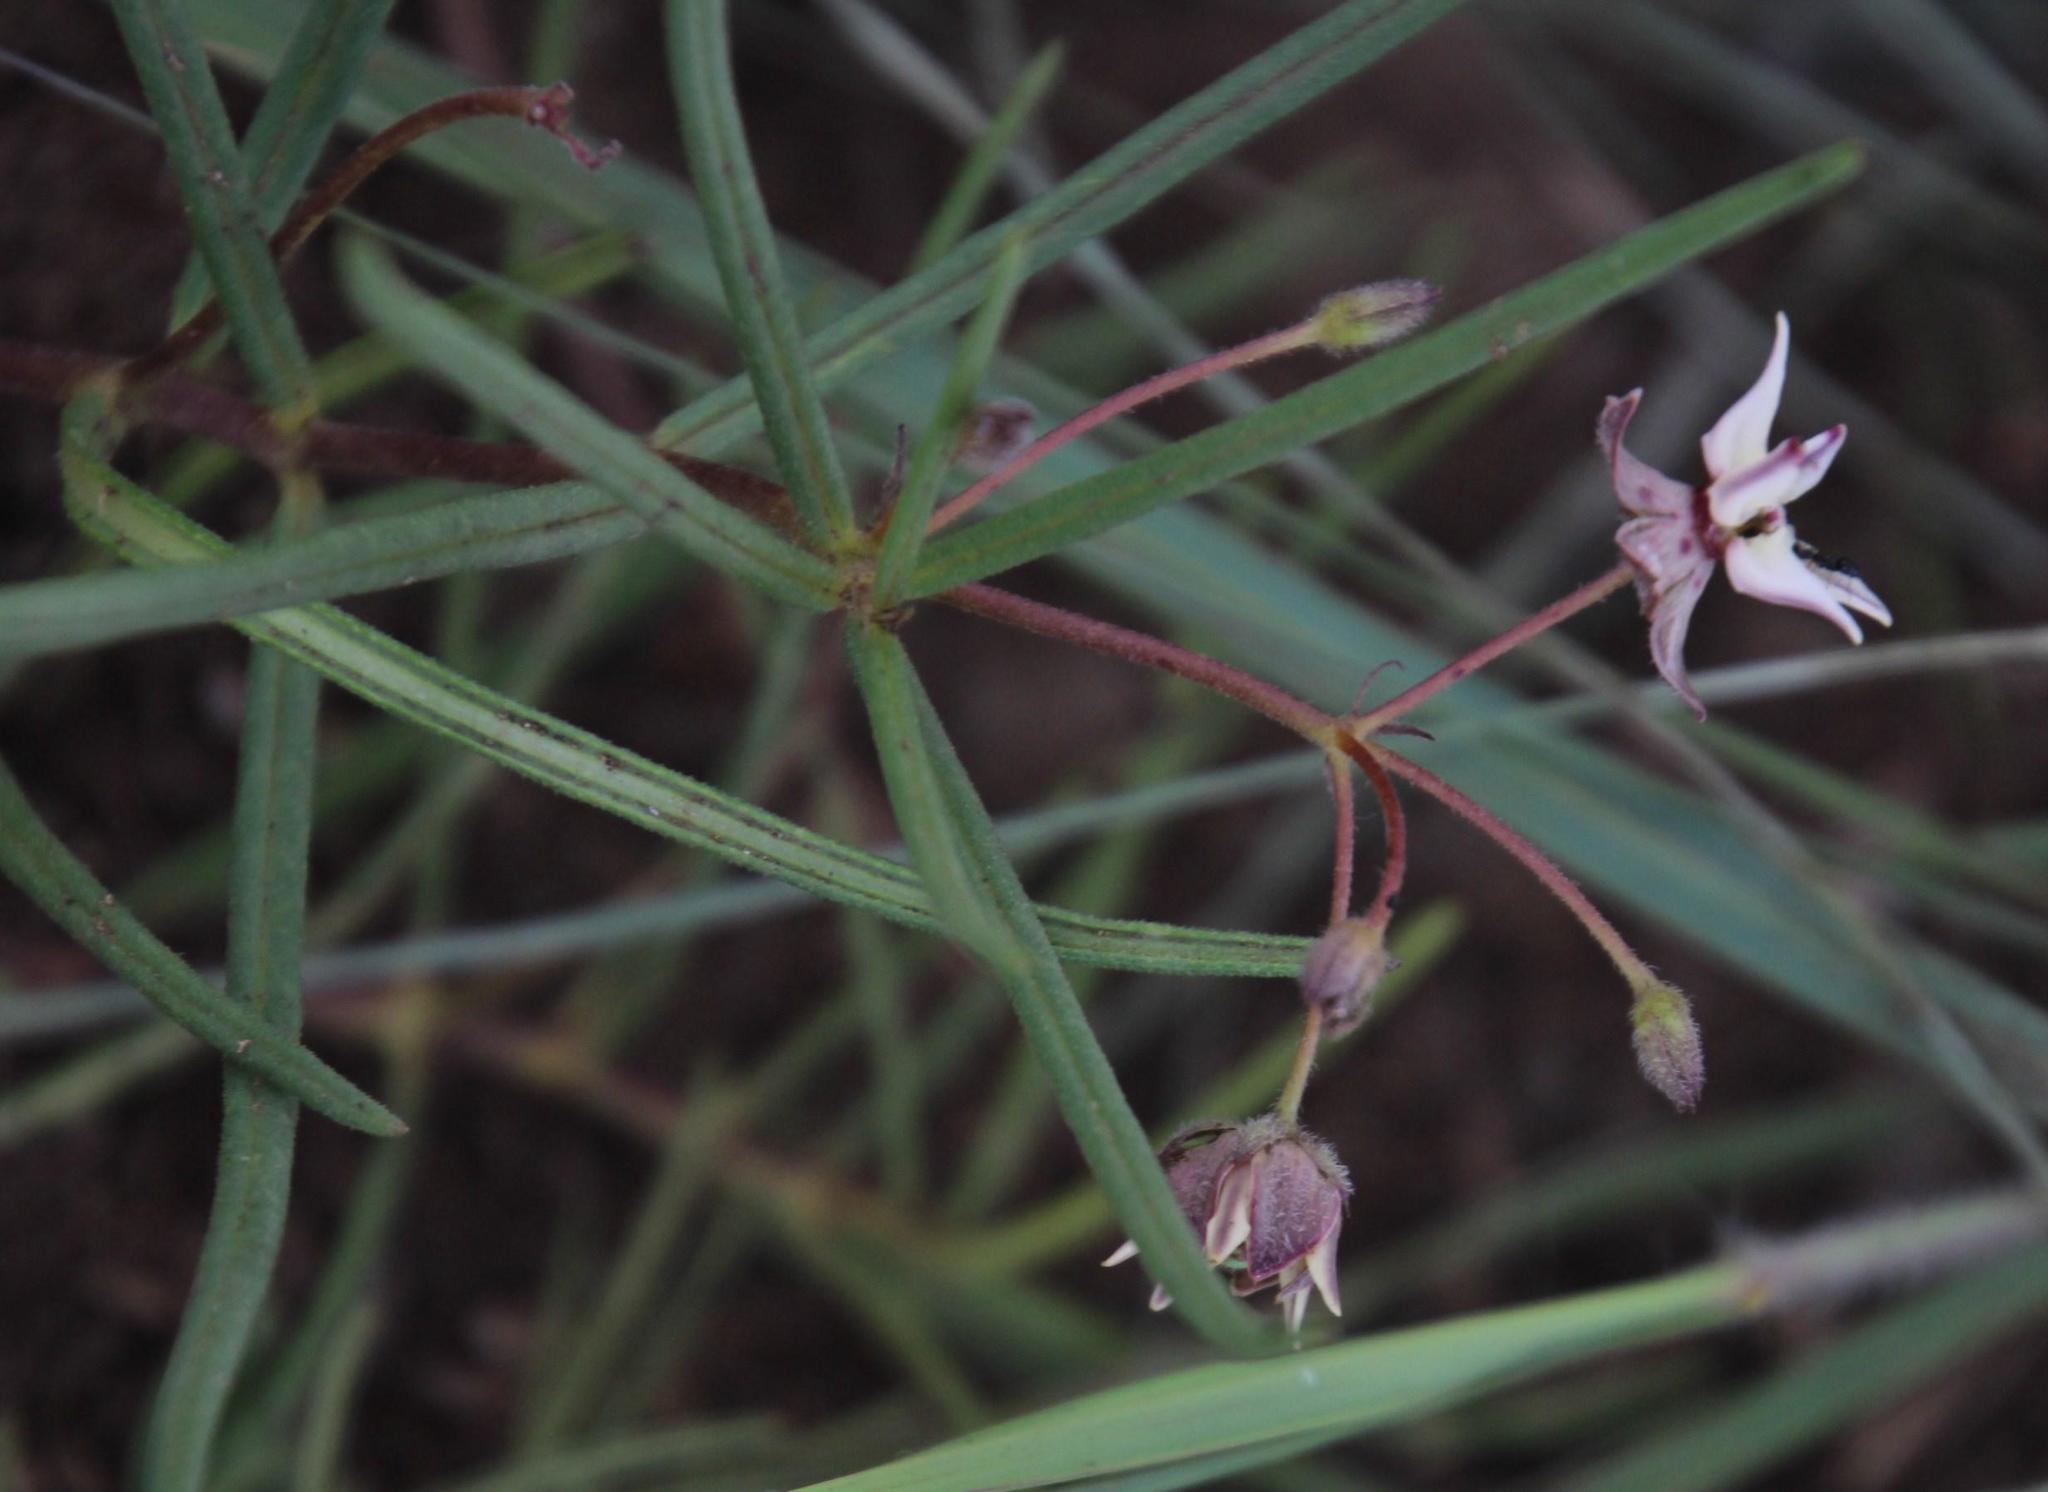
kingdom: Plantae
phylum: Tracheophyta
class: Magnoliopsida
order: Gentianales
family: Apocynaceae
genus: Asclepias
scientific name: Asclepias stellifera
